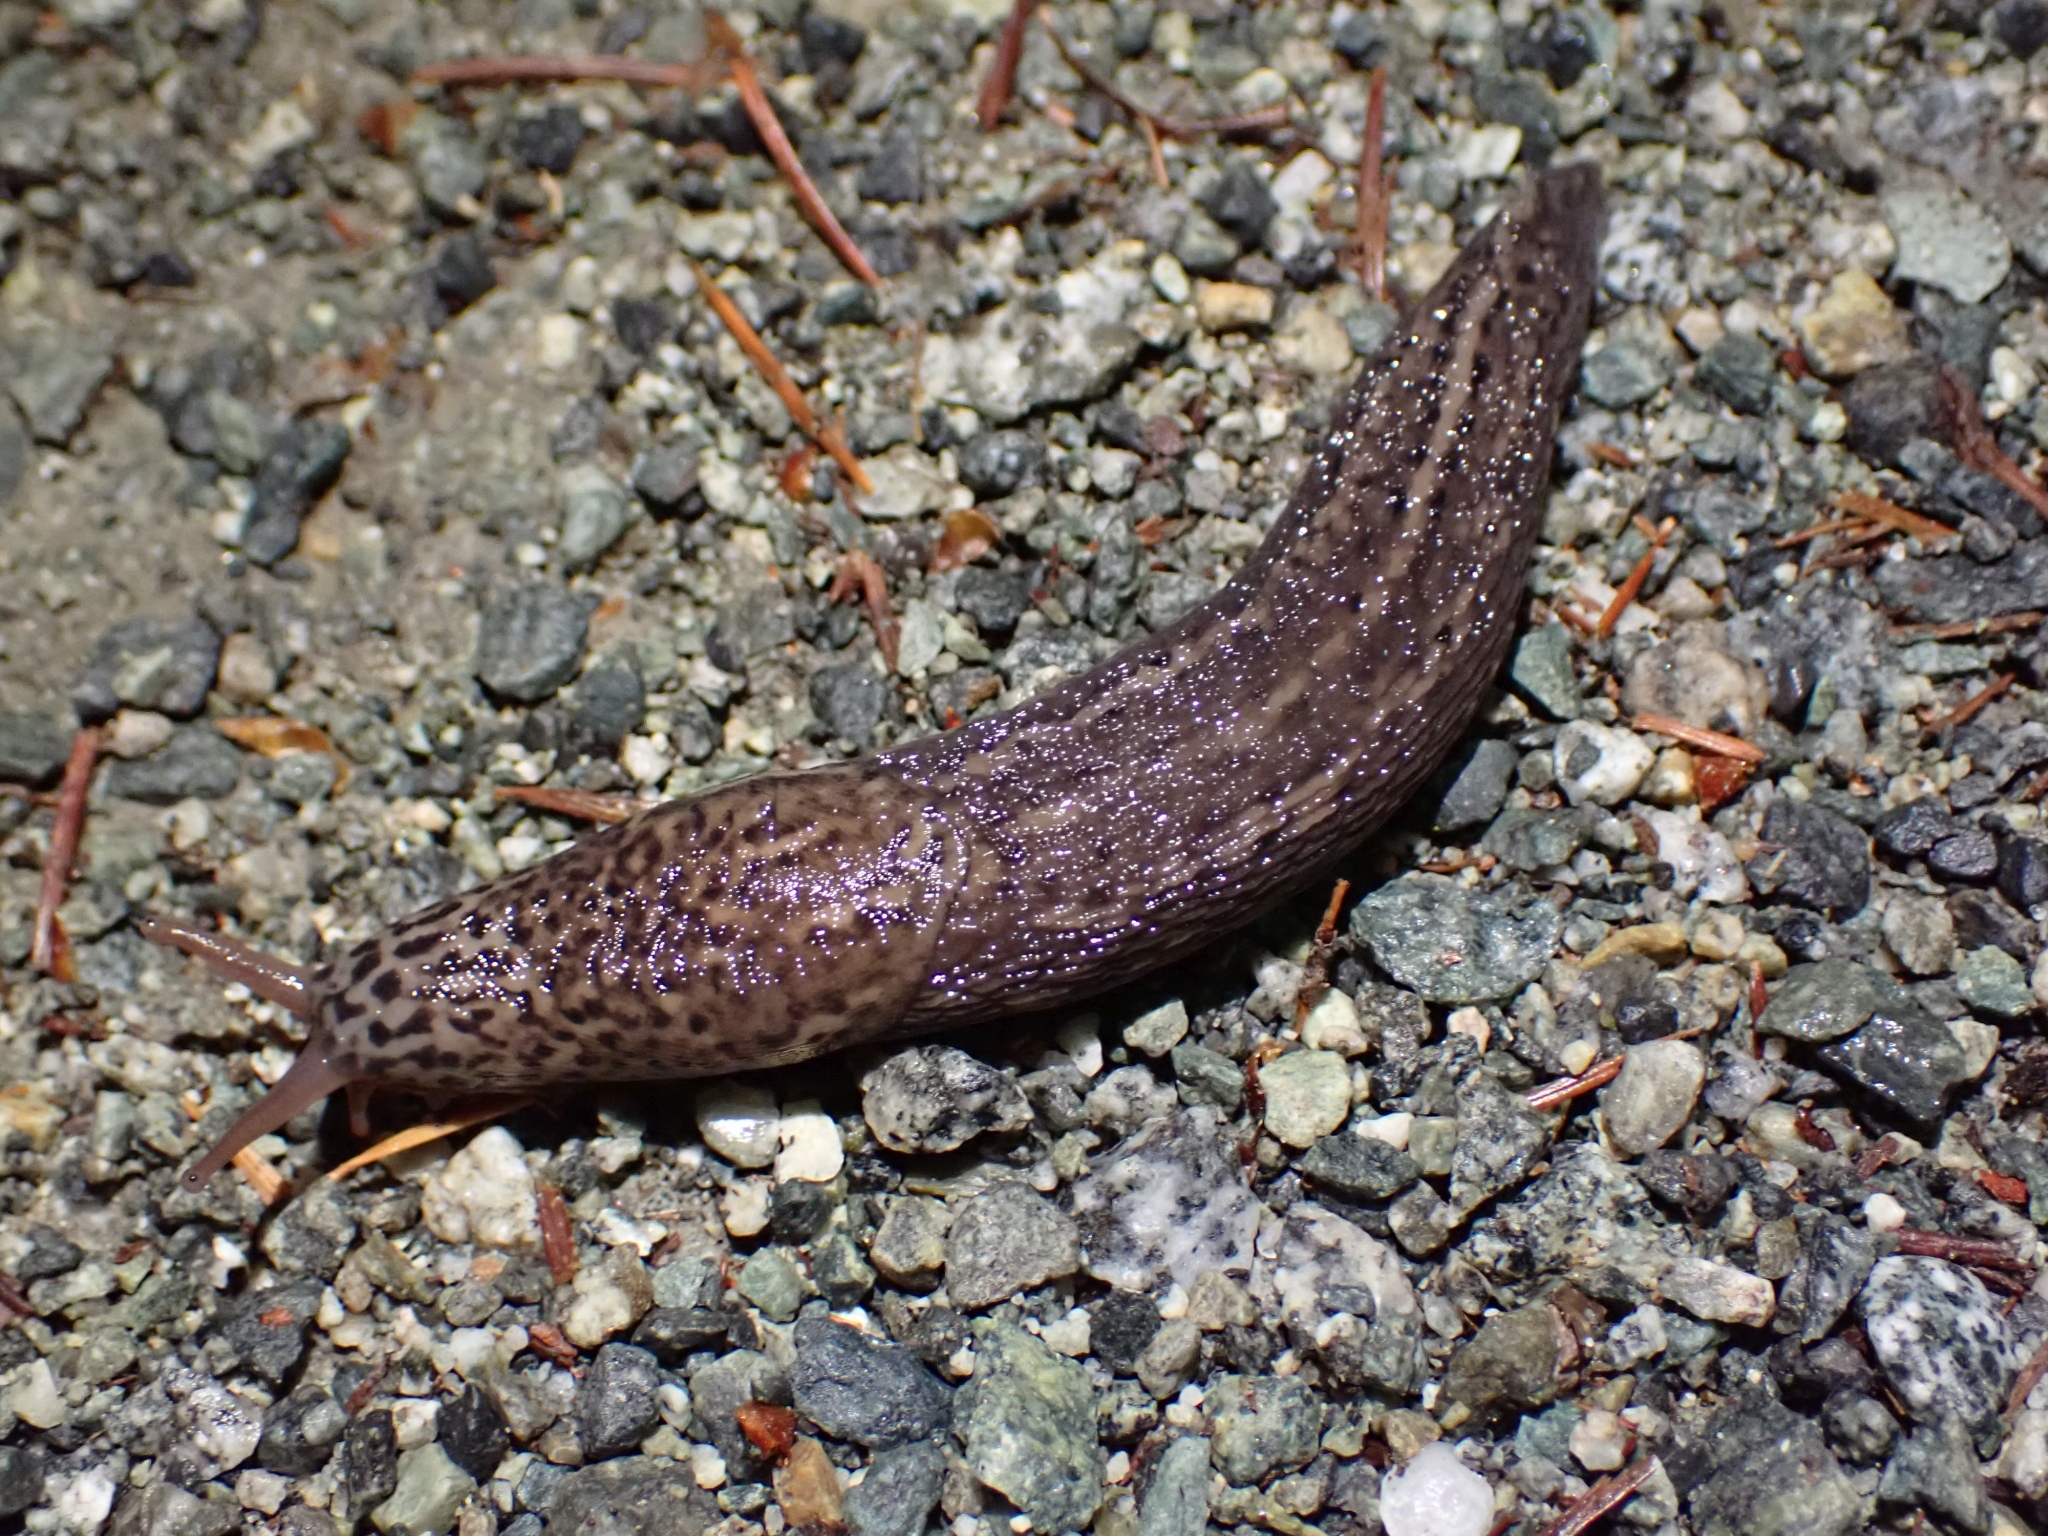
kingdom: Animalia
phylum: Mollusca
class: Gastropoda
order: Stylommatophora
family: Limacidae
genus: Limax
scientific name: Limax maximus
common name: Great grey slug
